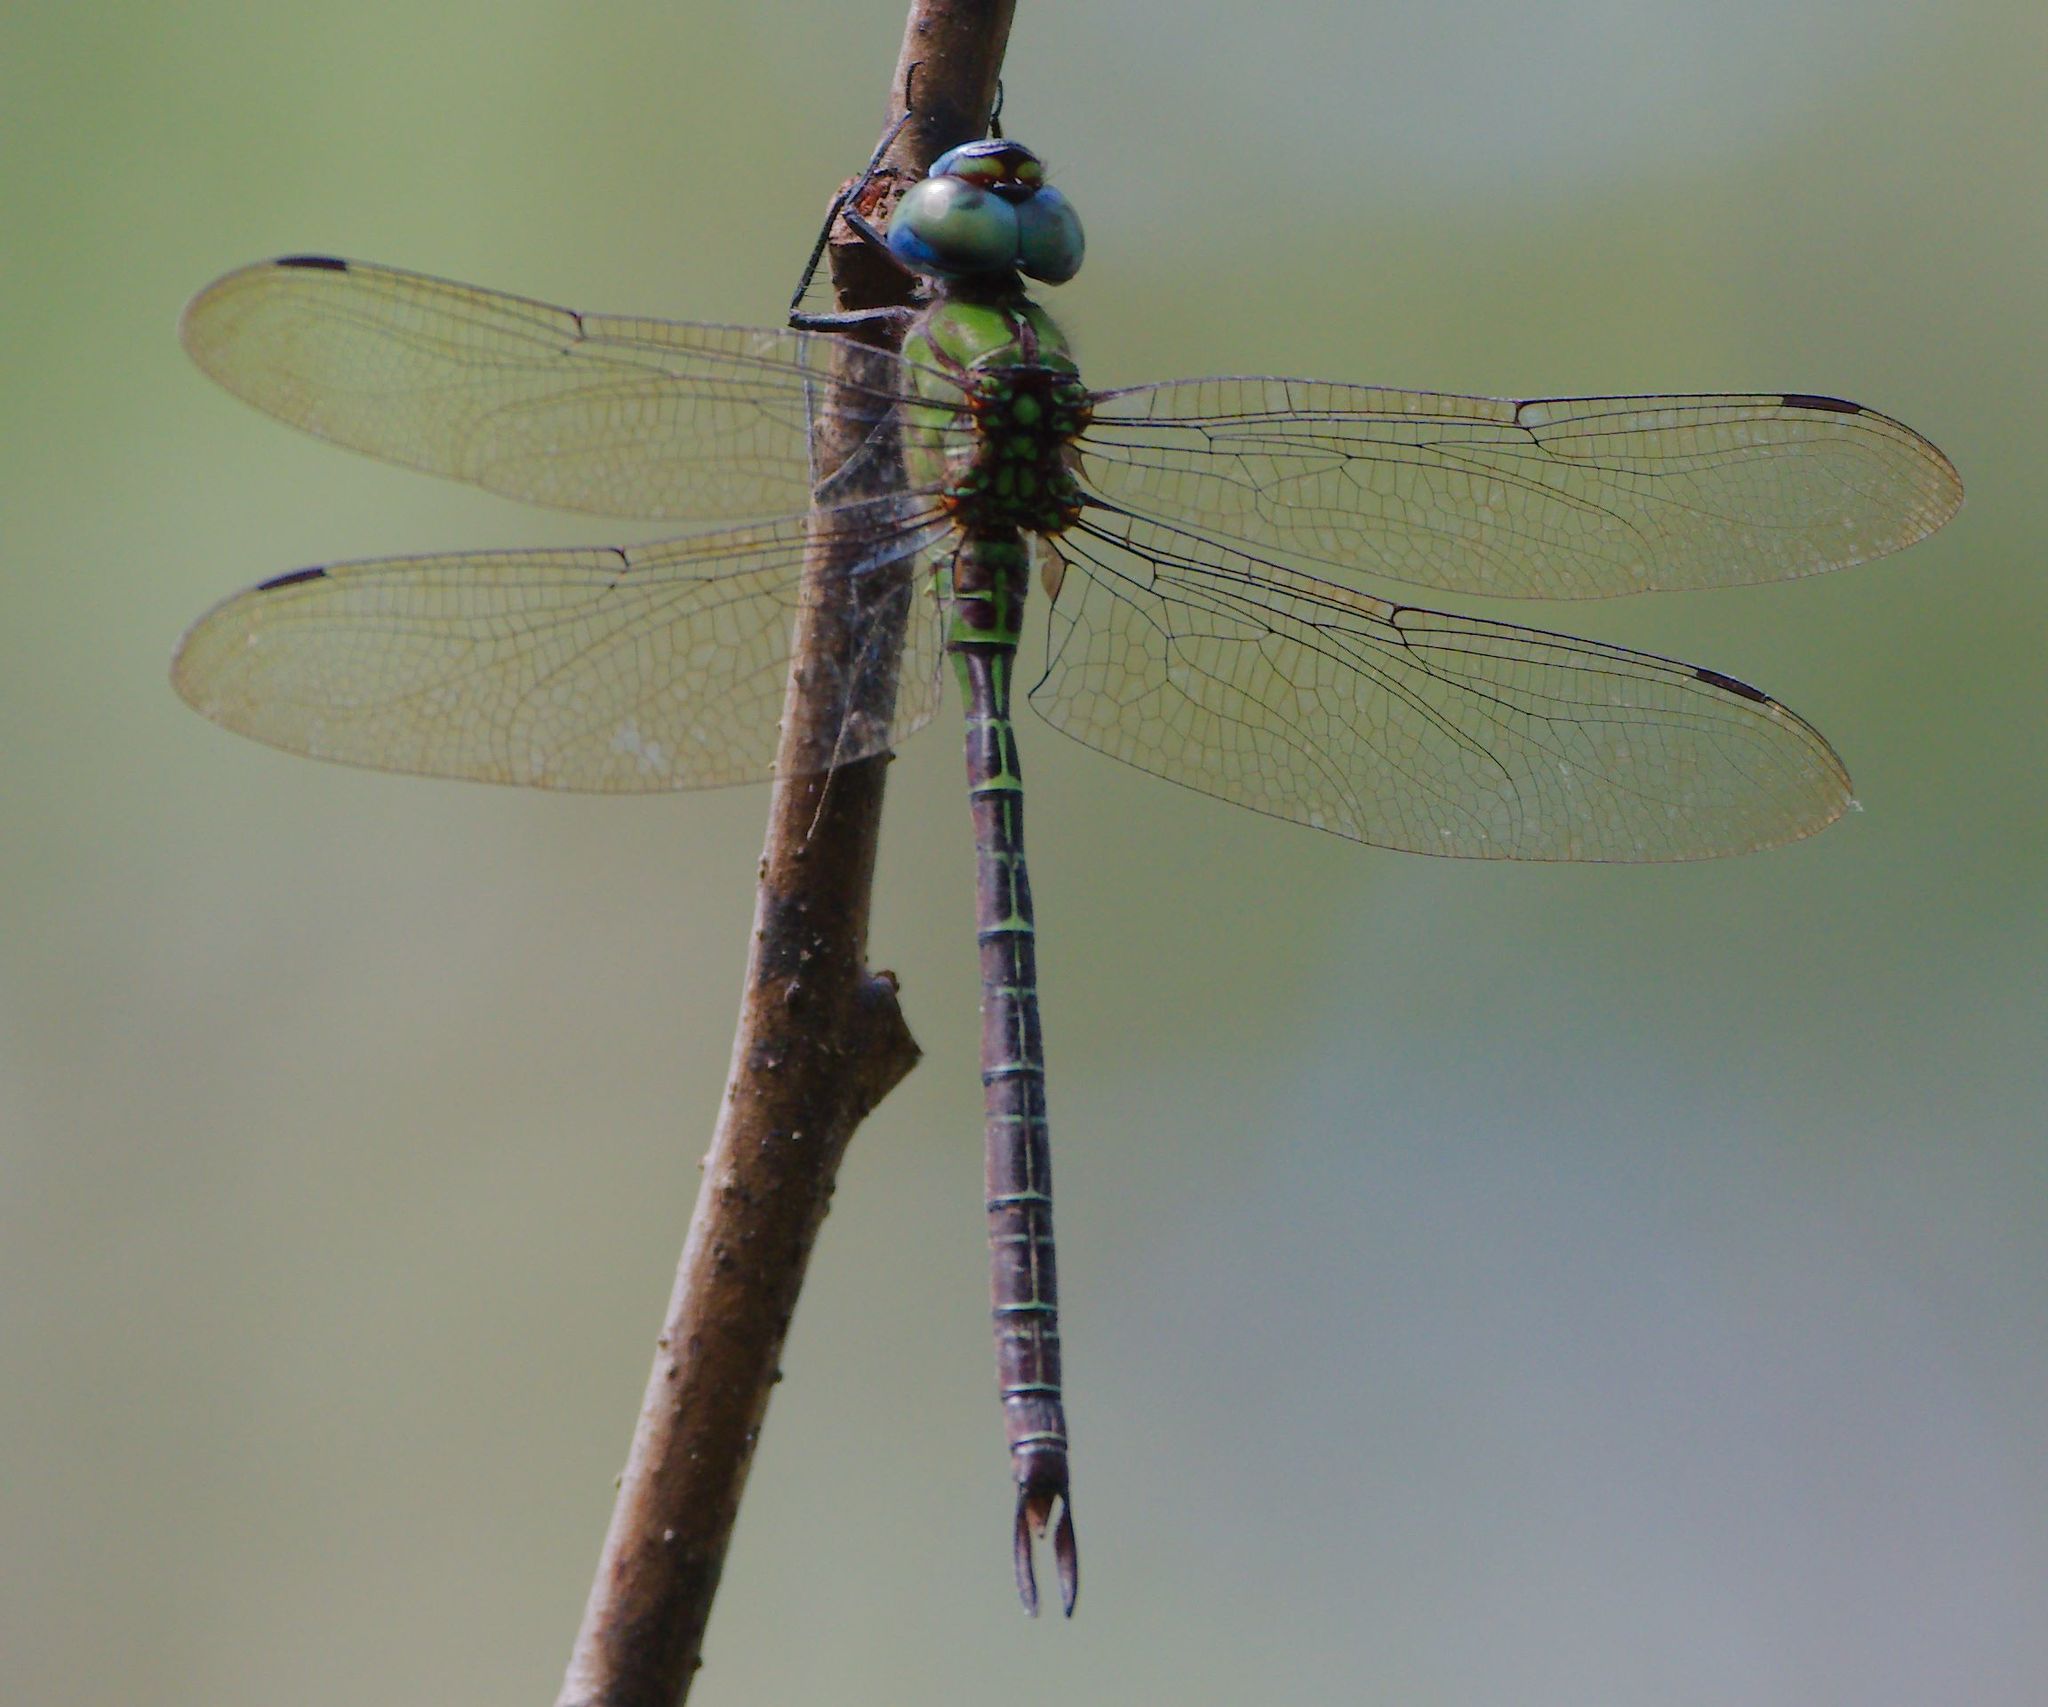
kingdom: Animalia
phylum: Arthropoda
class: Insecta
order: Odonata
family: Aeshnidae
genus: Coryphaeschna
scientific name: Coryphaeschna adnexa
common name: Blue-faced darner
